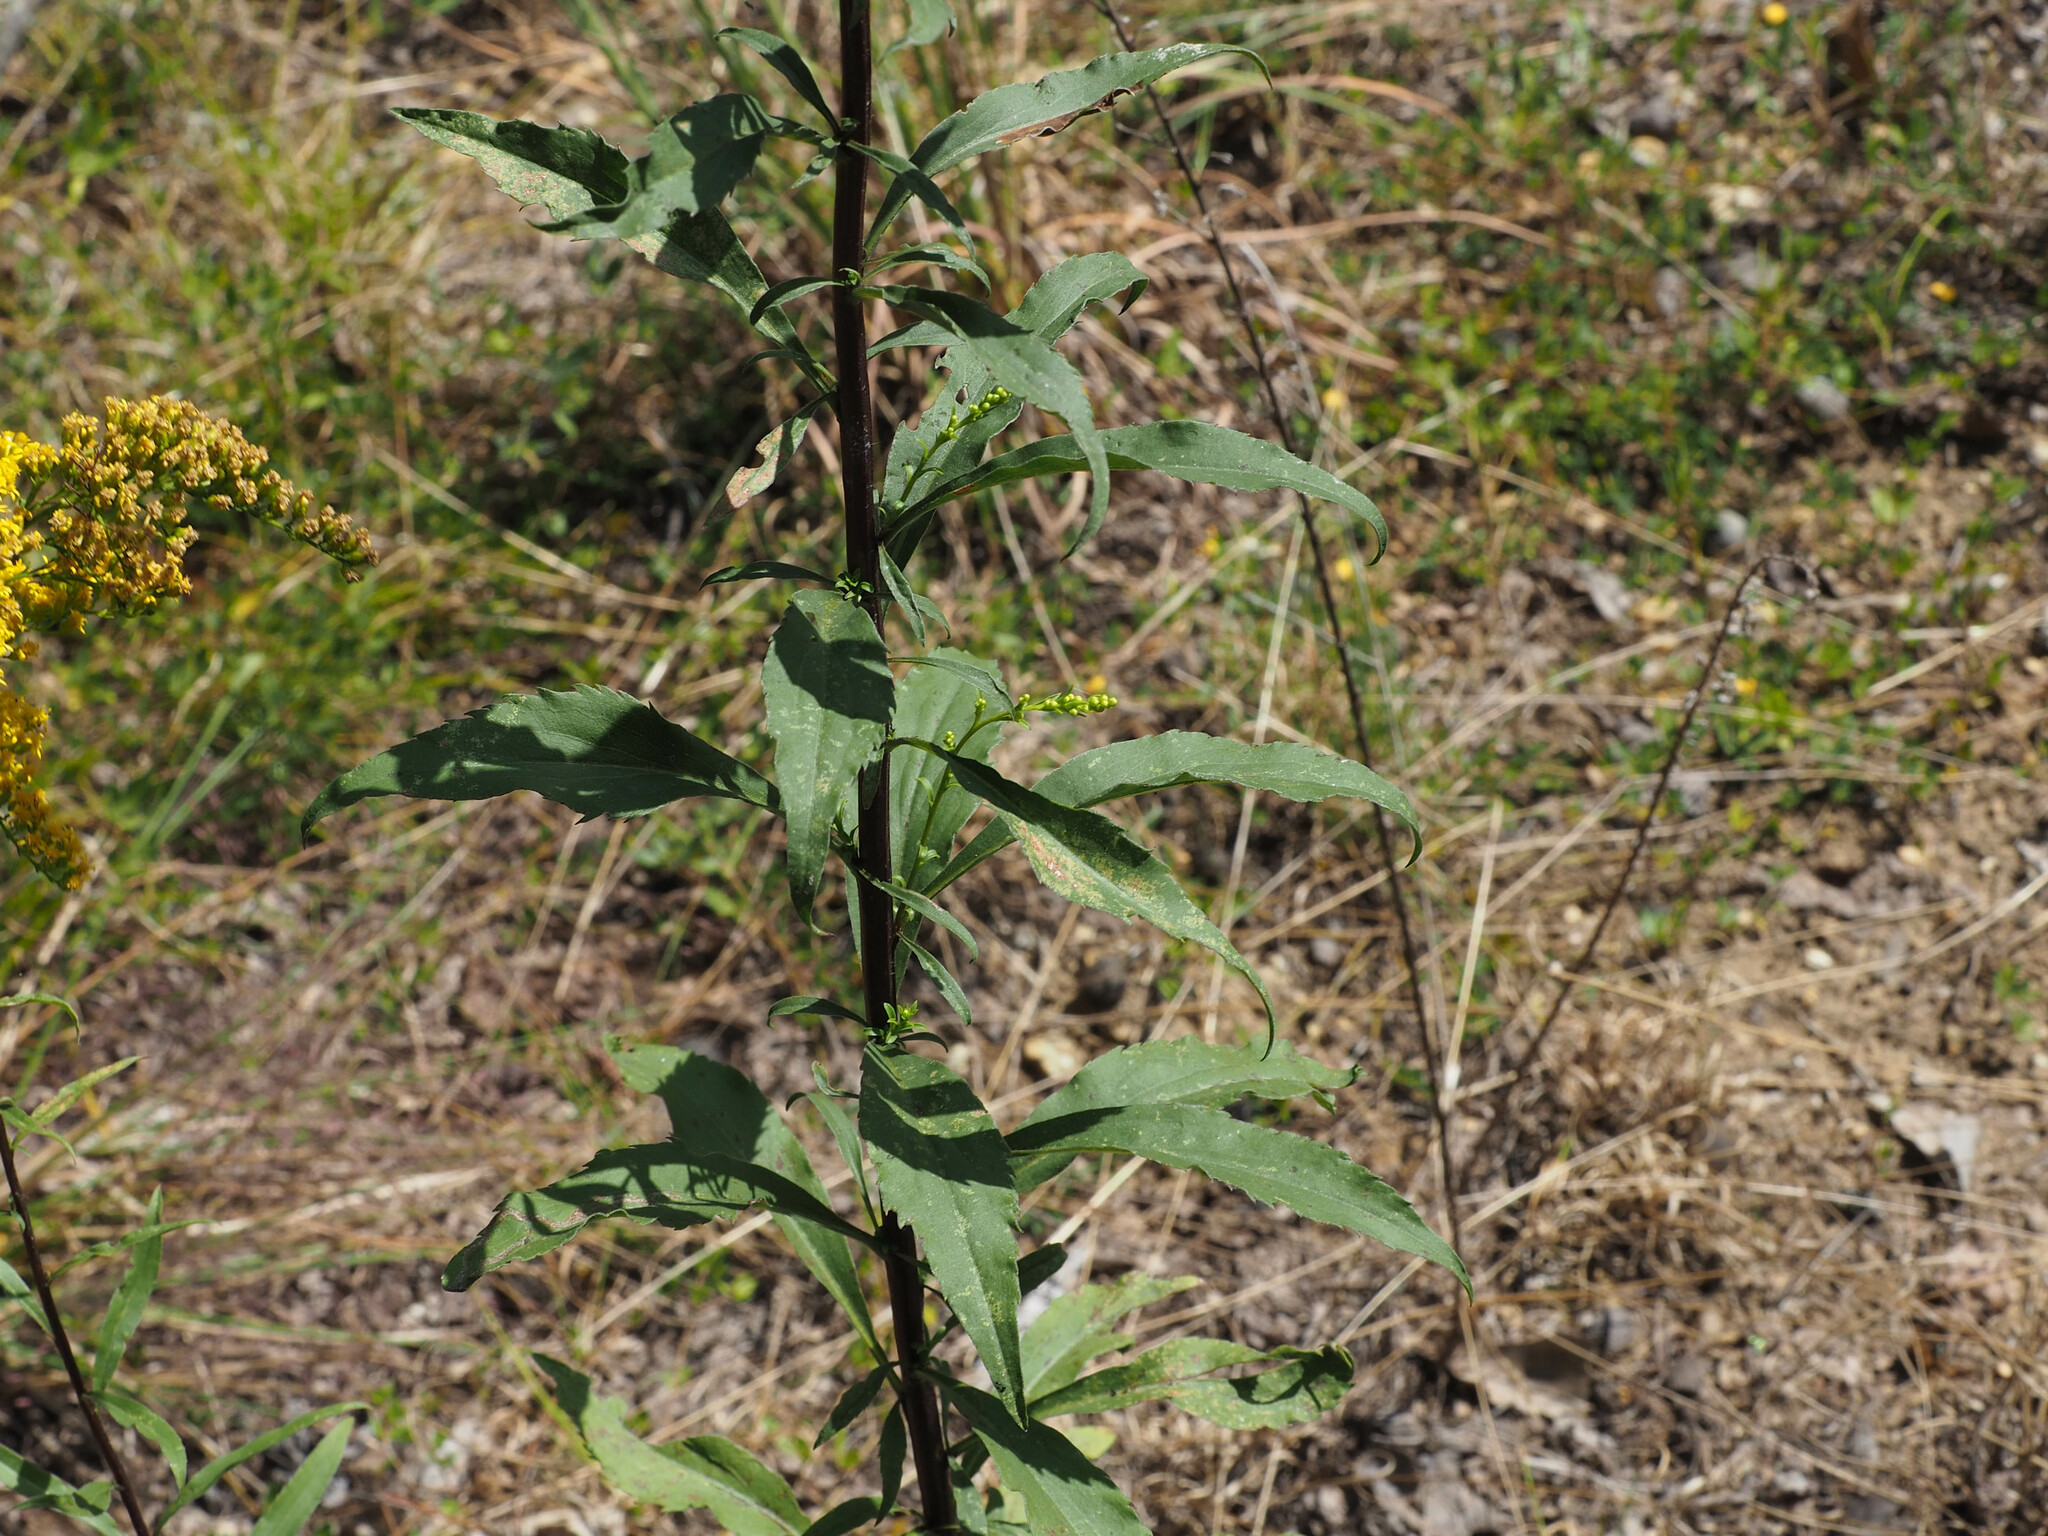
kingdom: Plantae
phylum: Tracheophyta
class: Magnoliopsida
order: Asterales
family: Asteraceae
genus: Solidago
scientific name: Solidago gigantea
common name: Giant goldenrod
